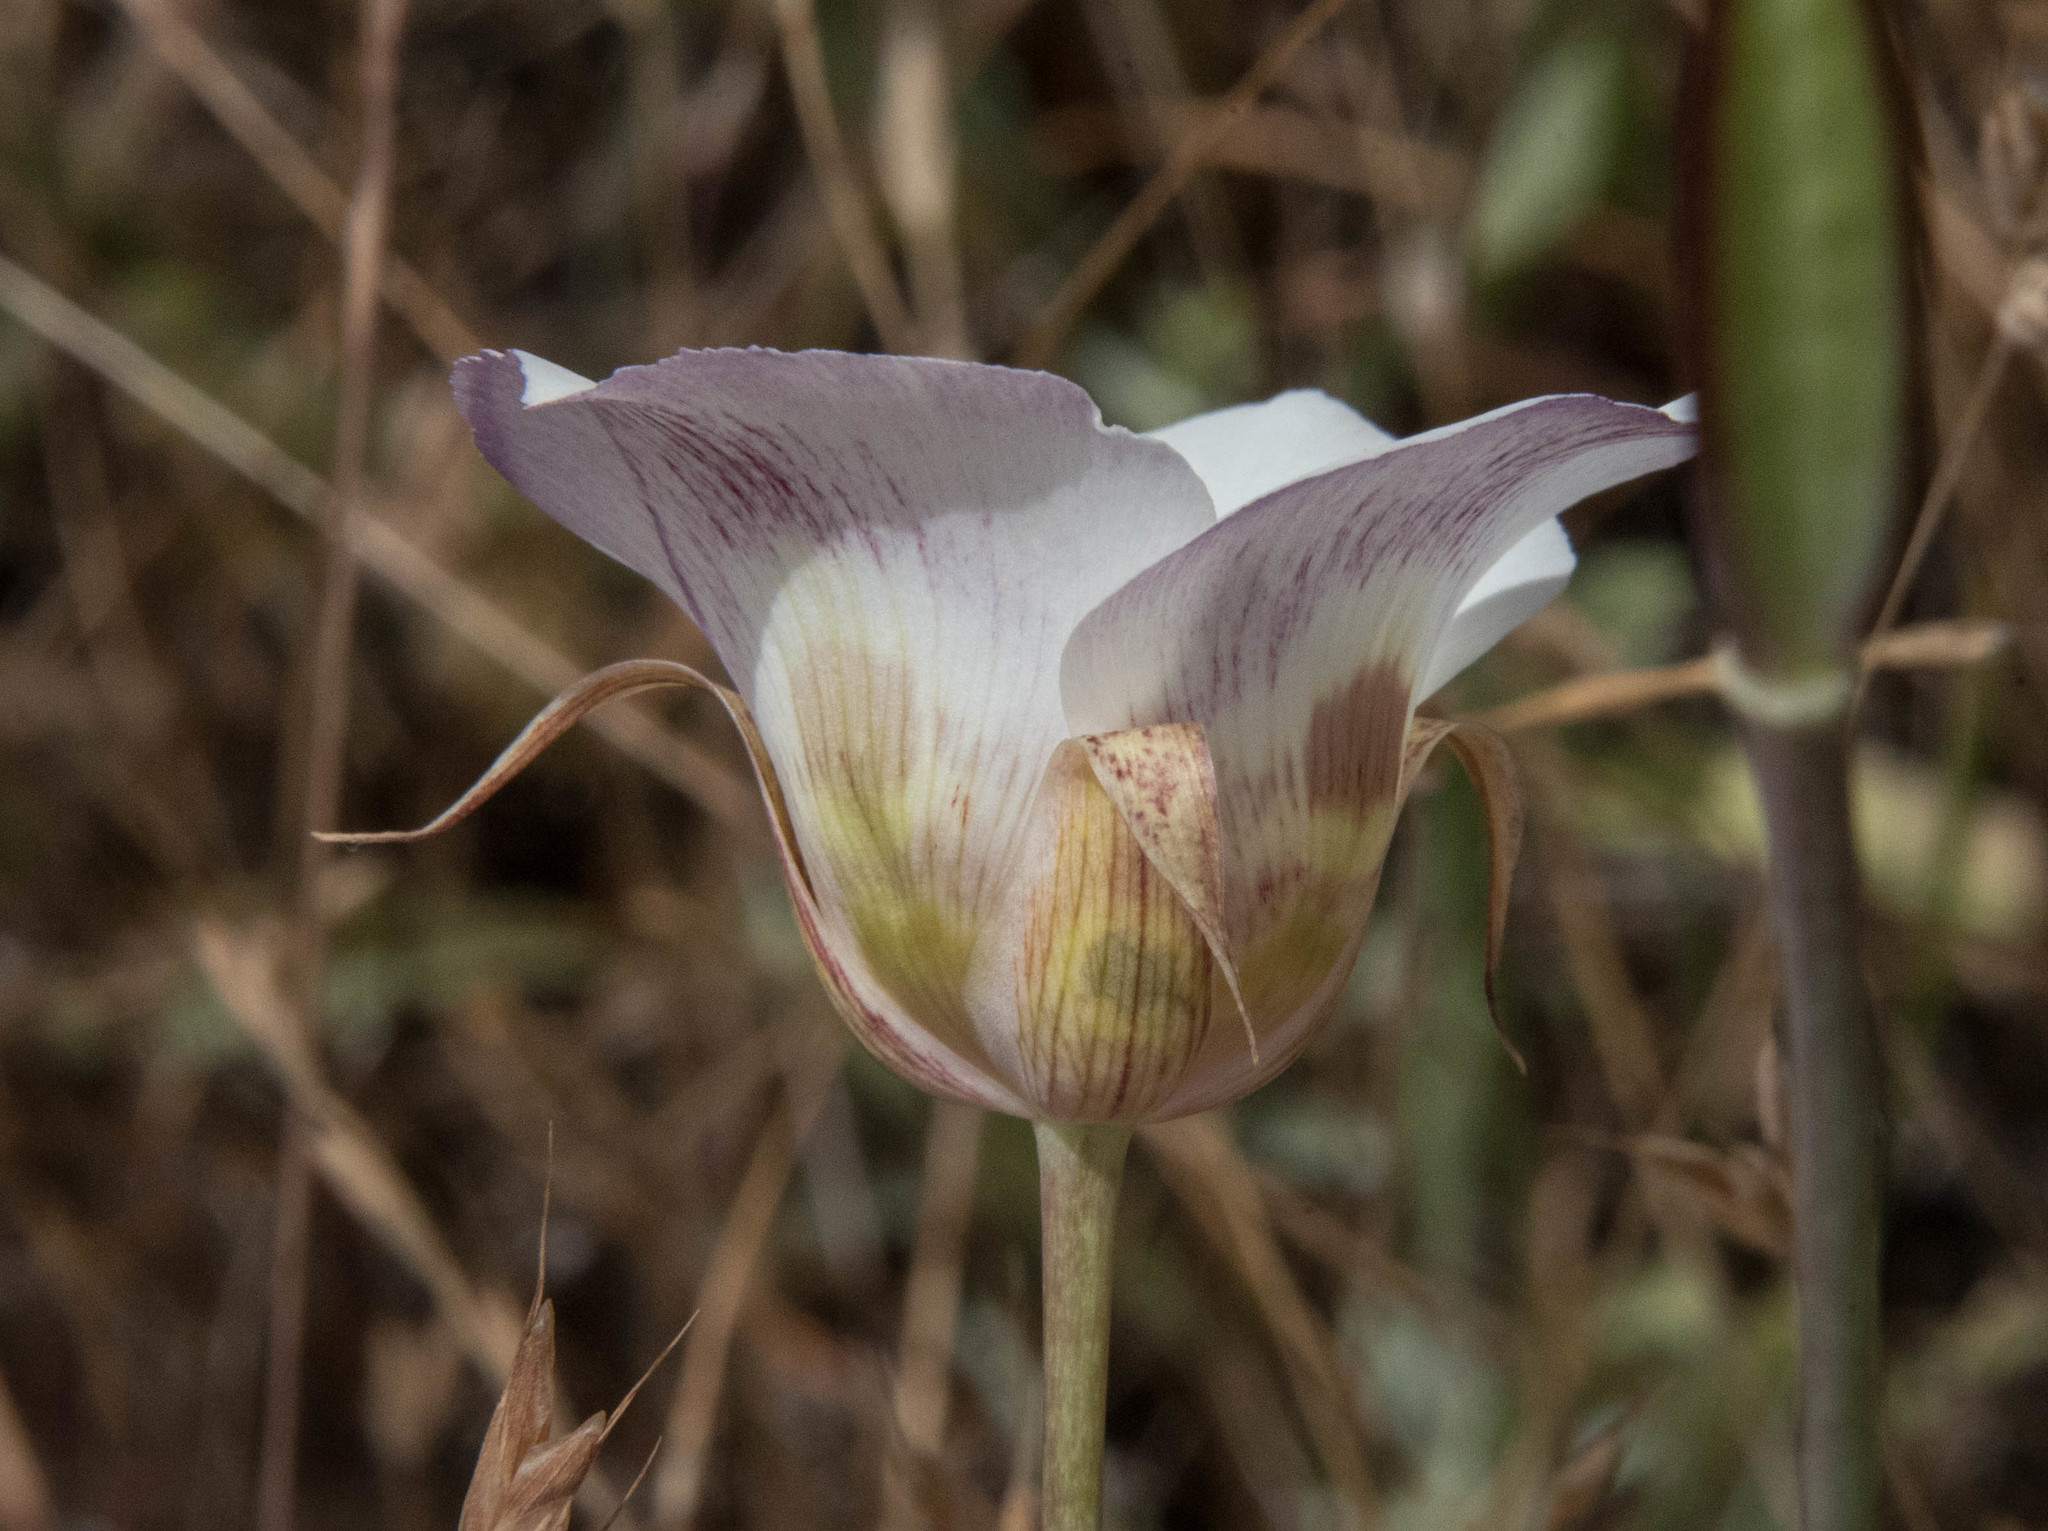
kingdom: Plantae
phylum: Tracheophyta
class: Liliopsida
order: Liliales
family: Liliaceae
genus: Calochortus
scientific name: Calochortus vestae
